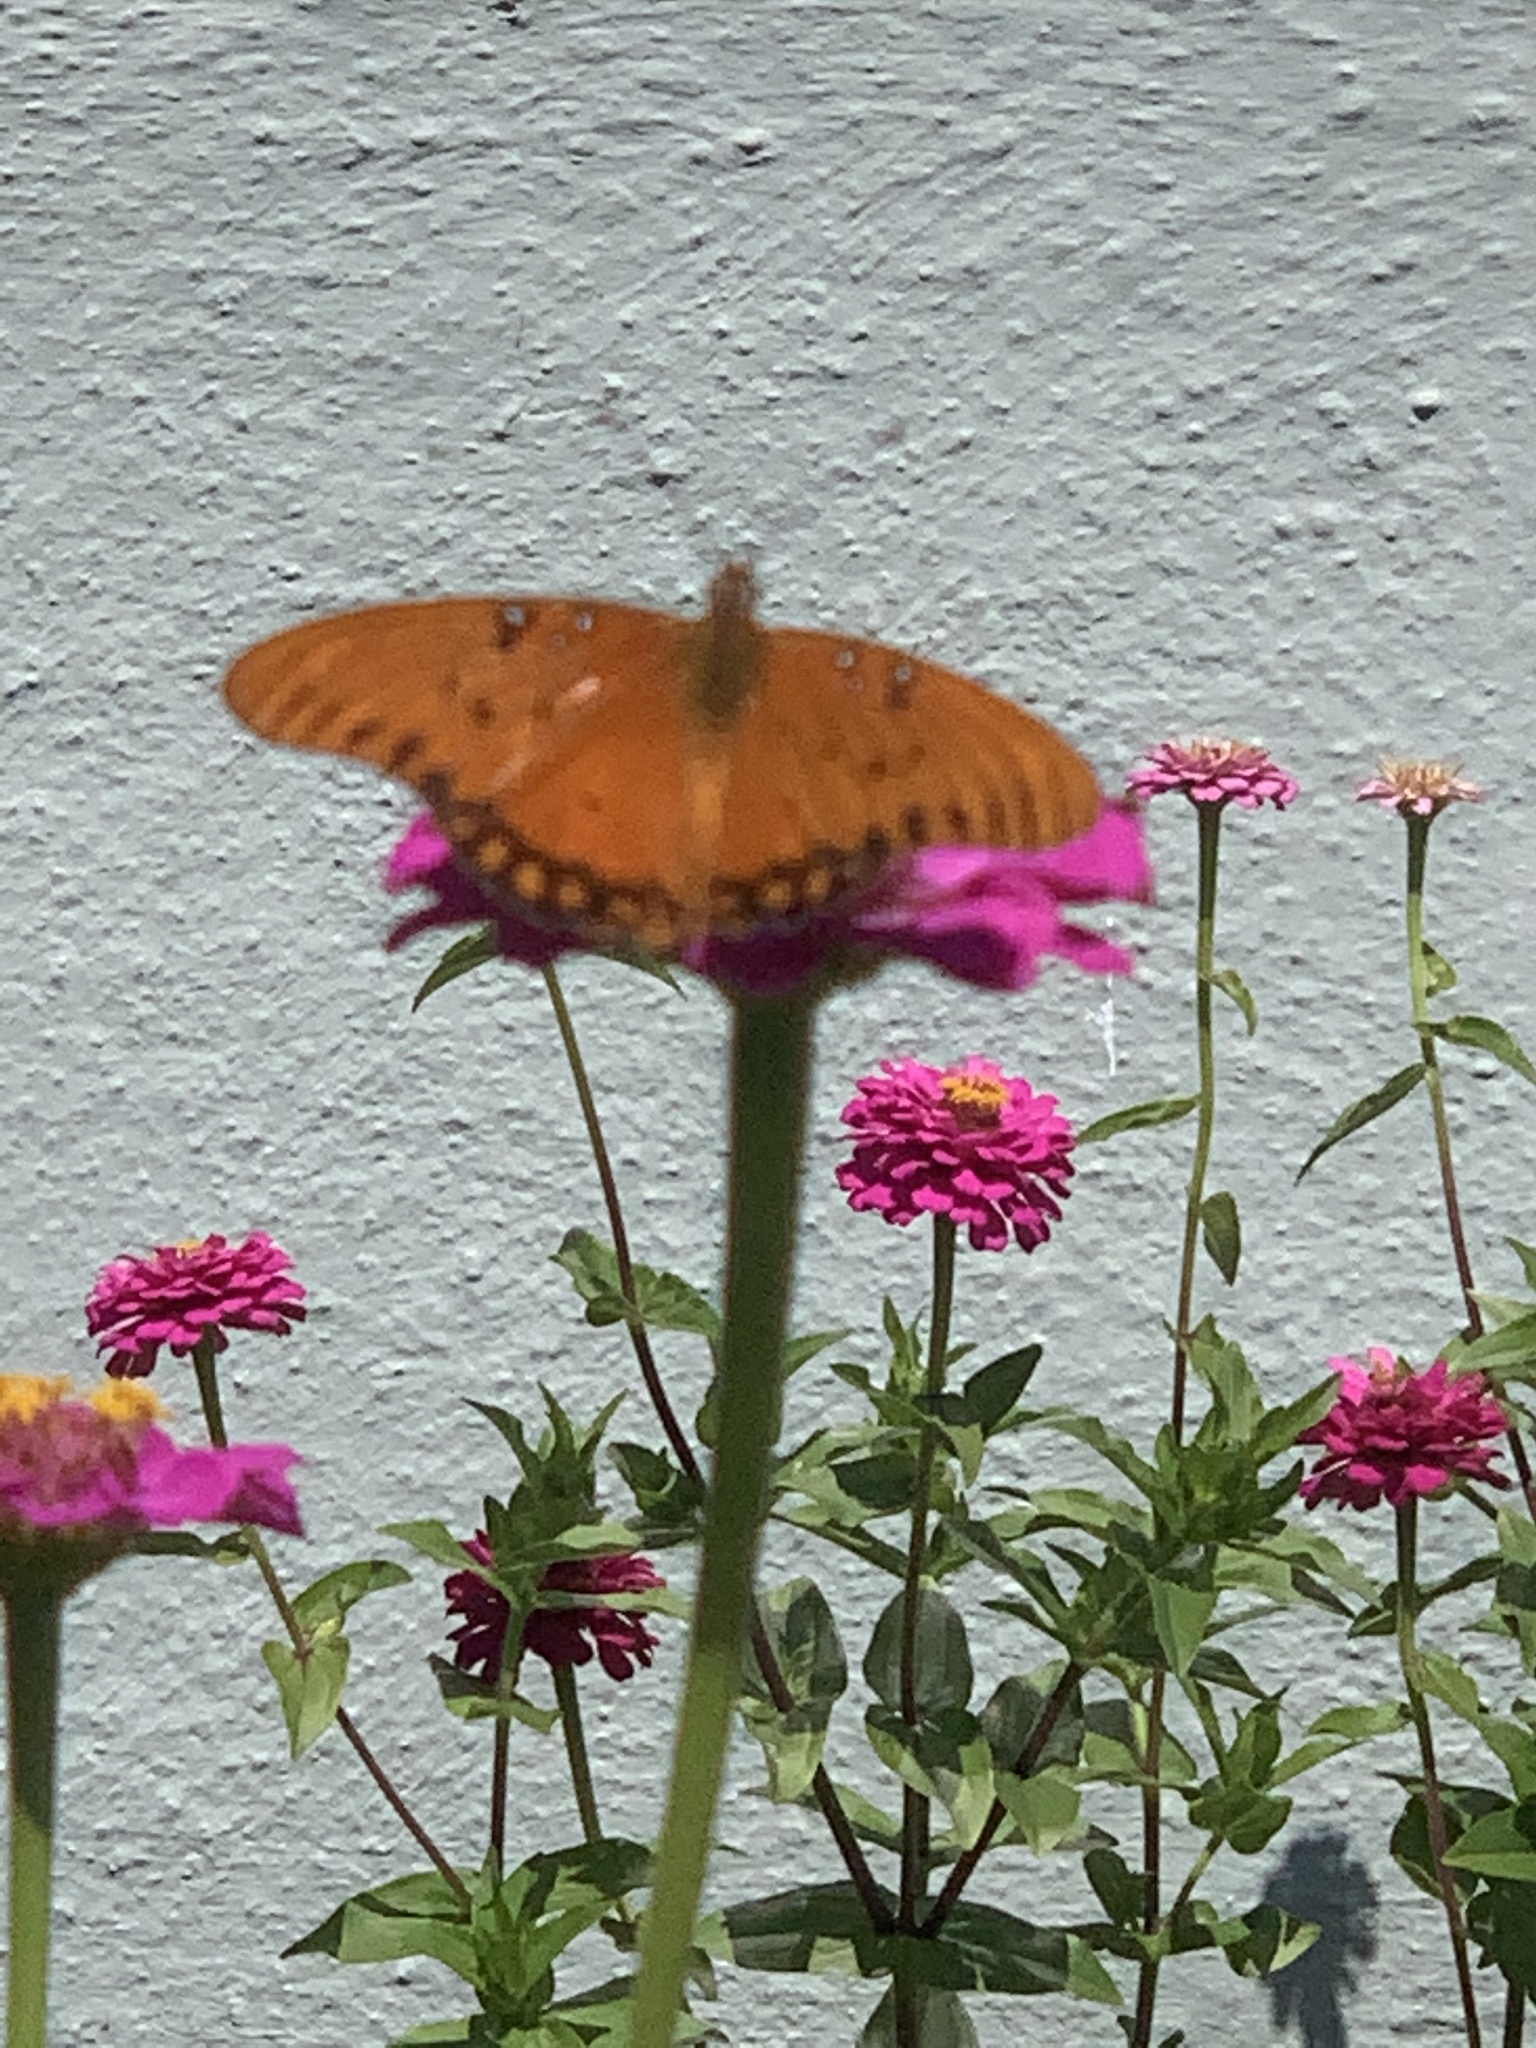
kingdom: Animalia
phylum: Arthropoda
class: Insecta
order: Lepidoptera
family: Nymphalidae
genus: Dione
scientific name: Dione vanillae
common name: Gulf fritillary
